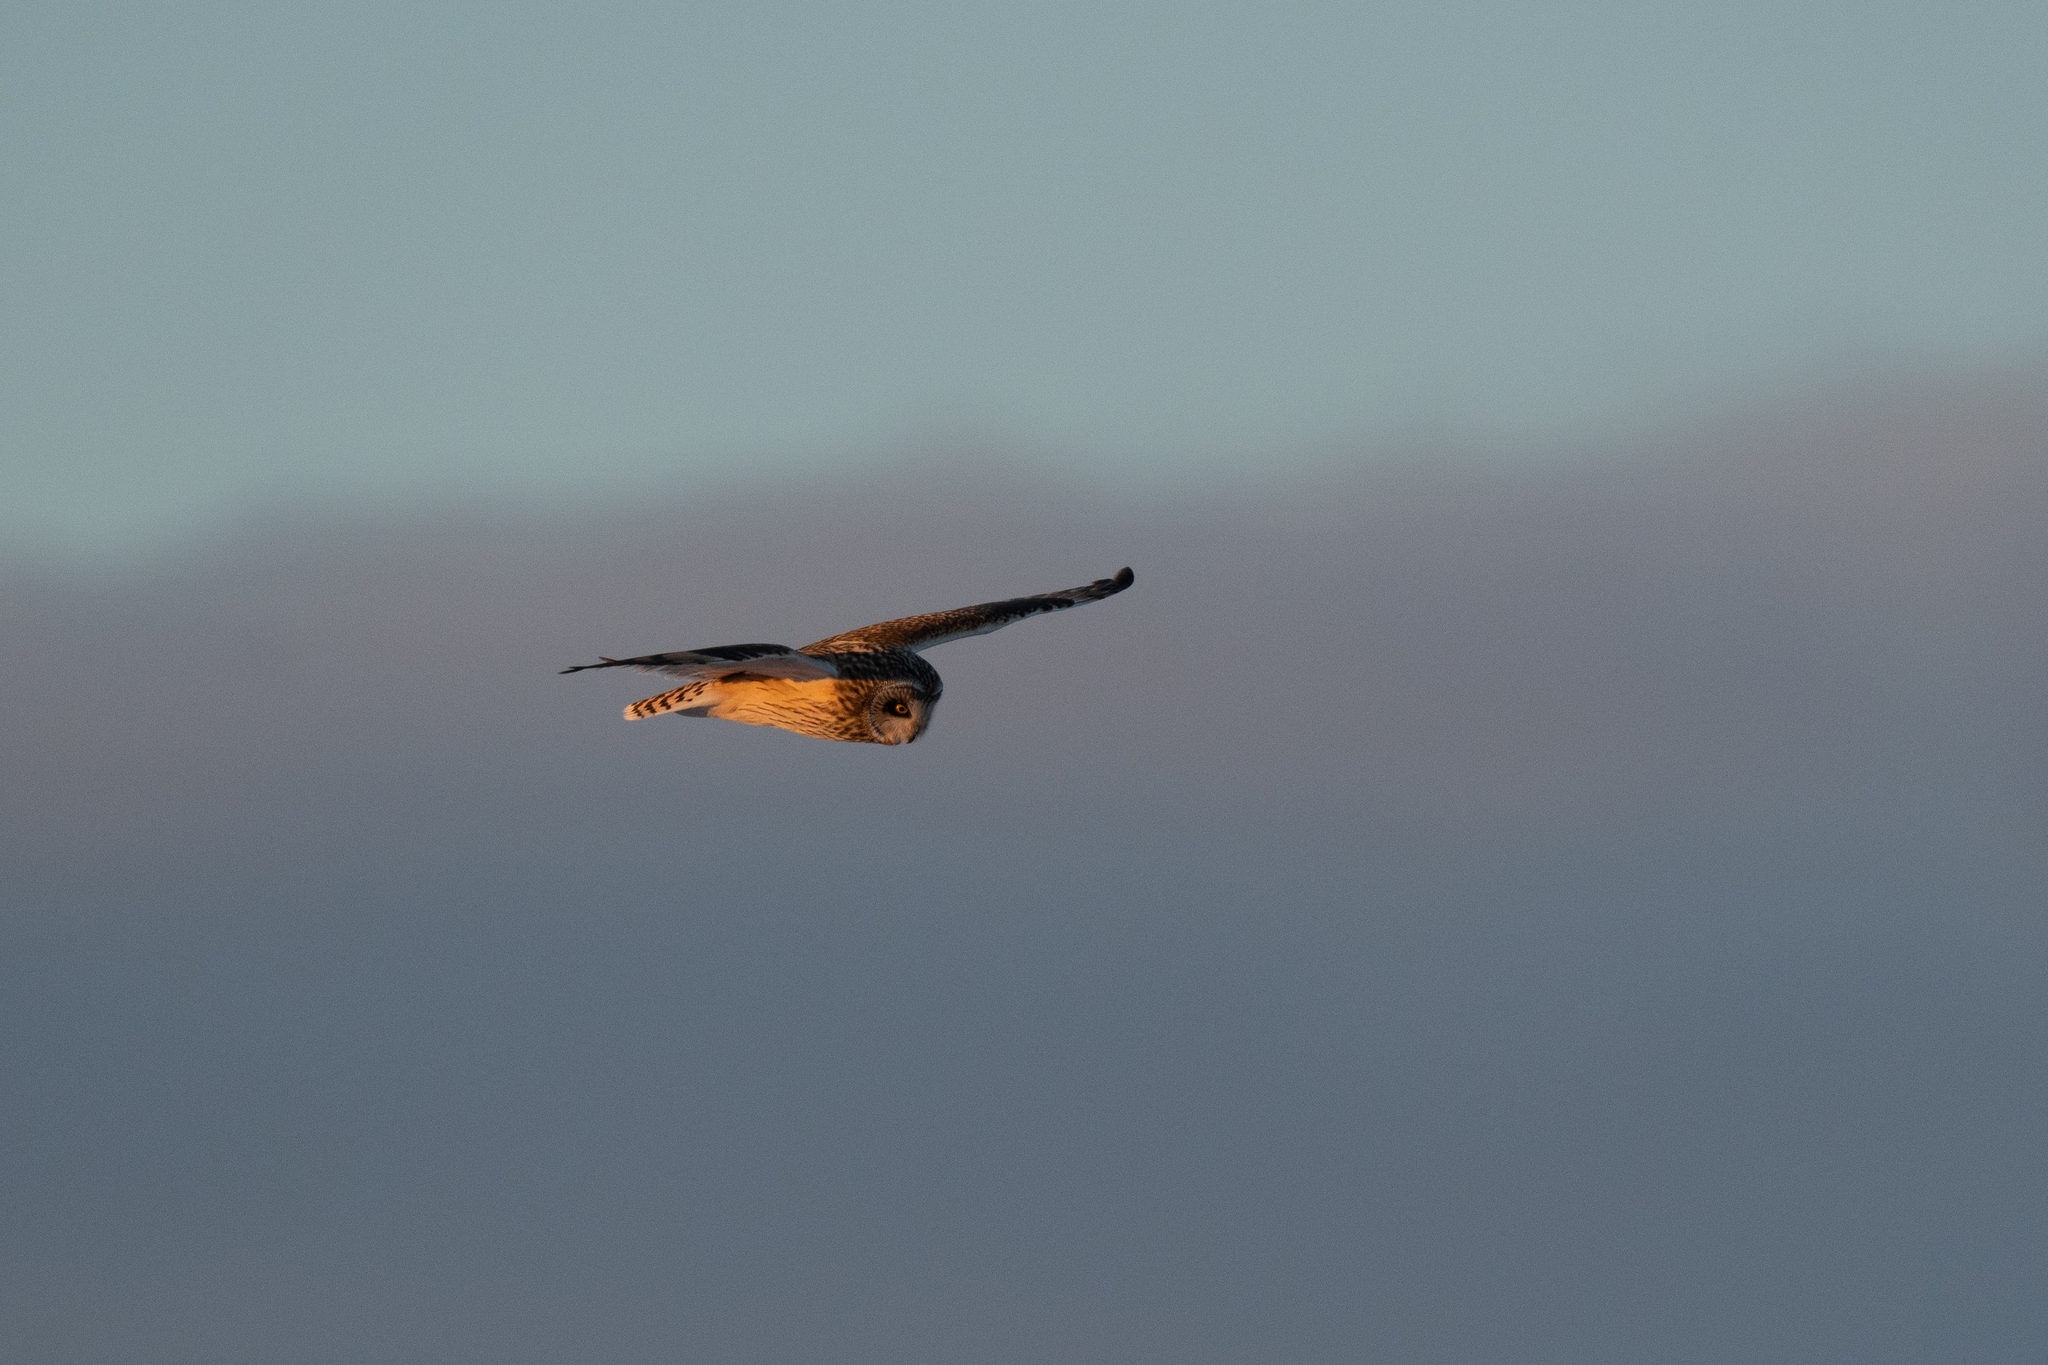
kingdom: Animalia
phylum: Chordata
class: Aves
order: Strigiformes
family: Strigidae
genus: Asio
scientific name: Asio flammeus
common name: Short-eared owl
